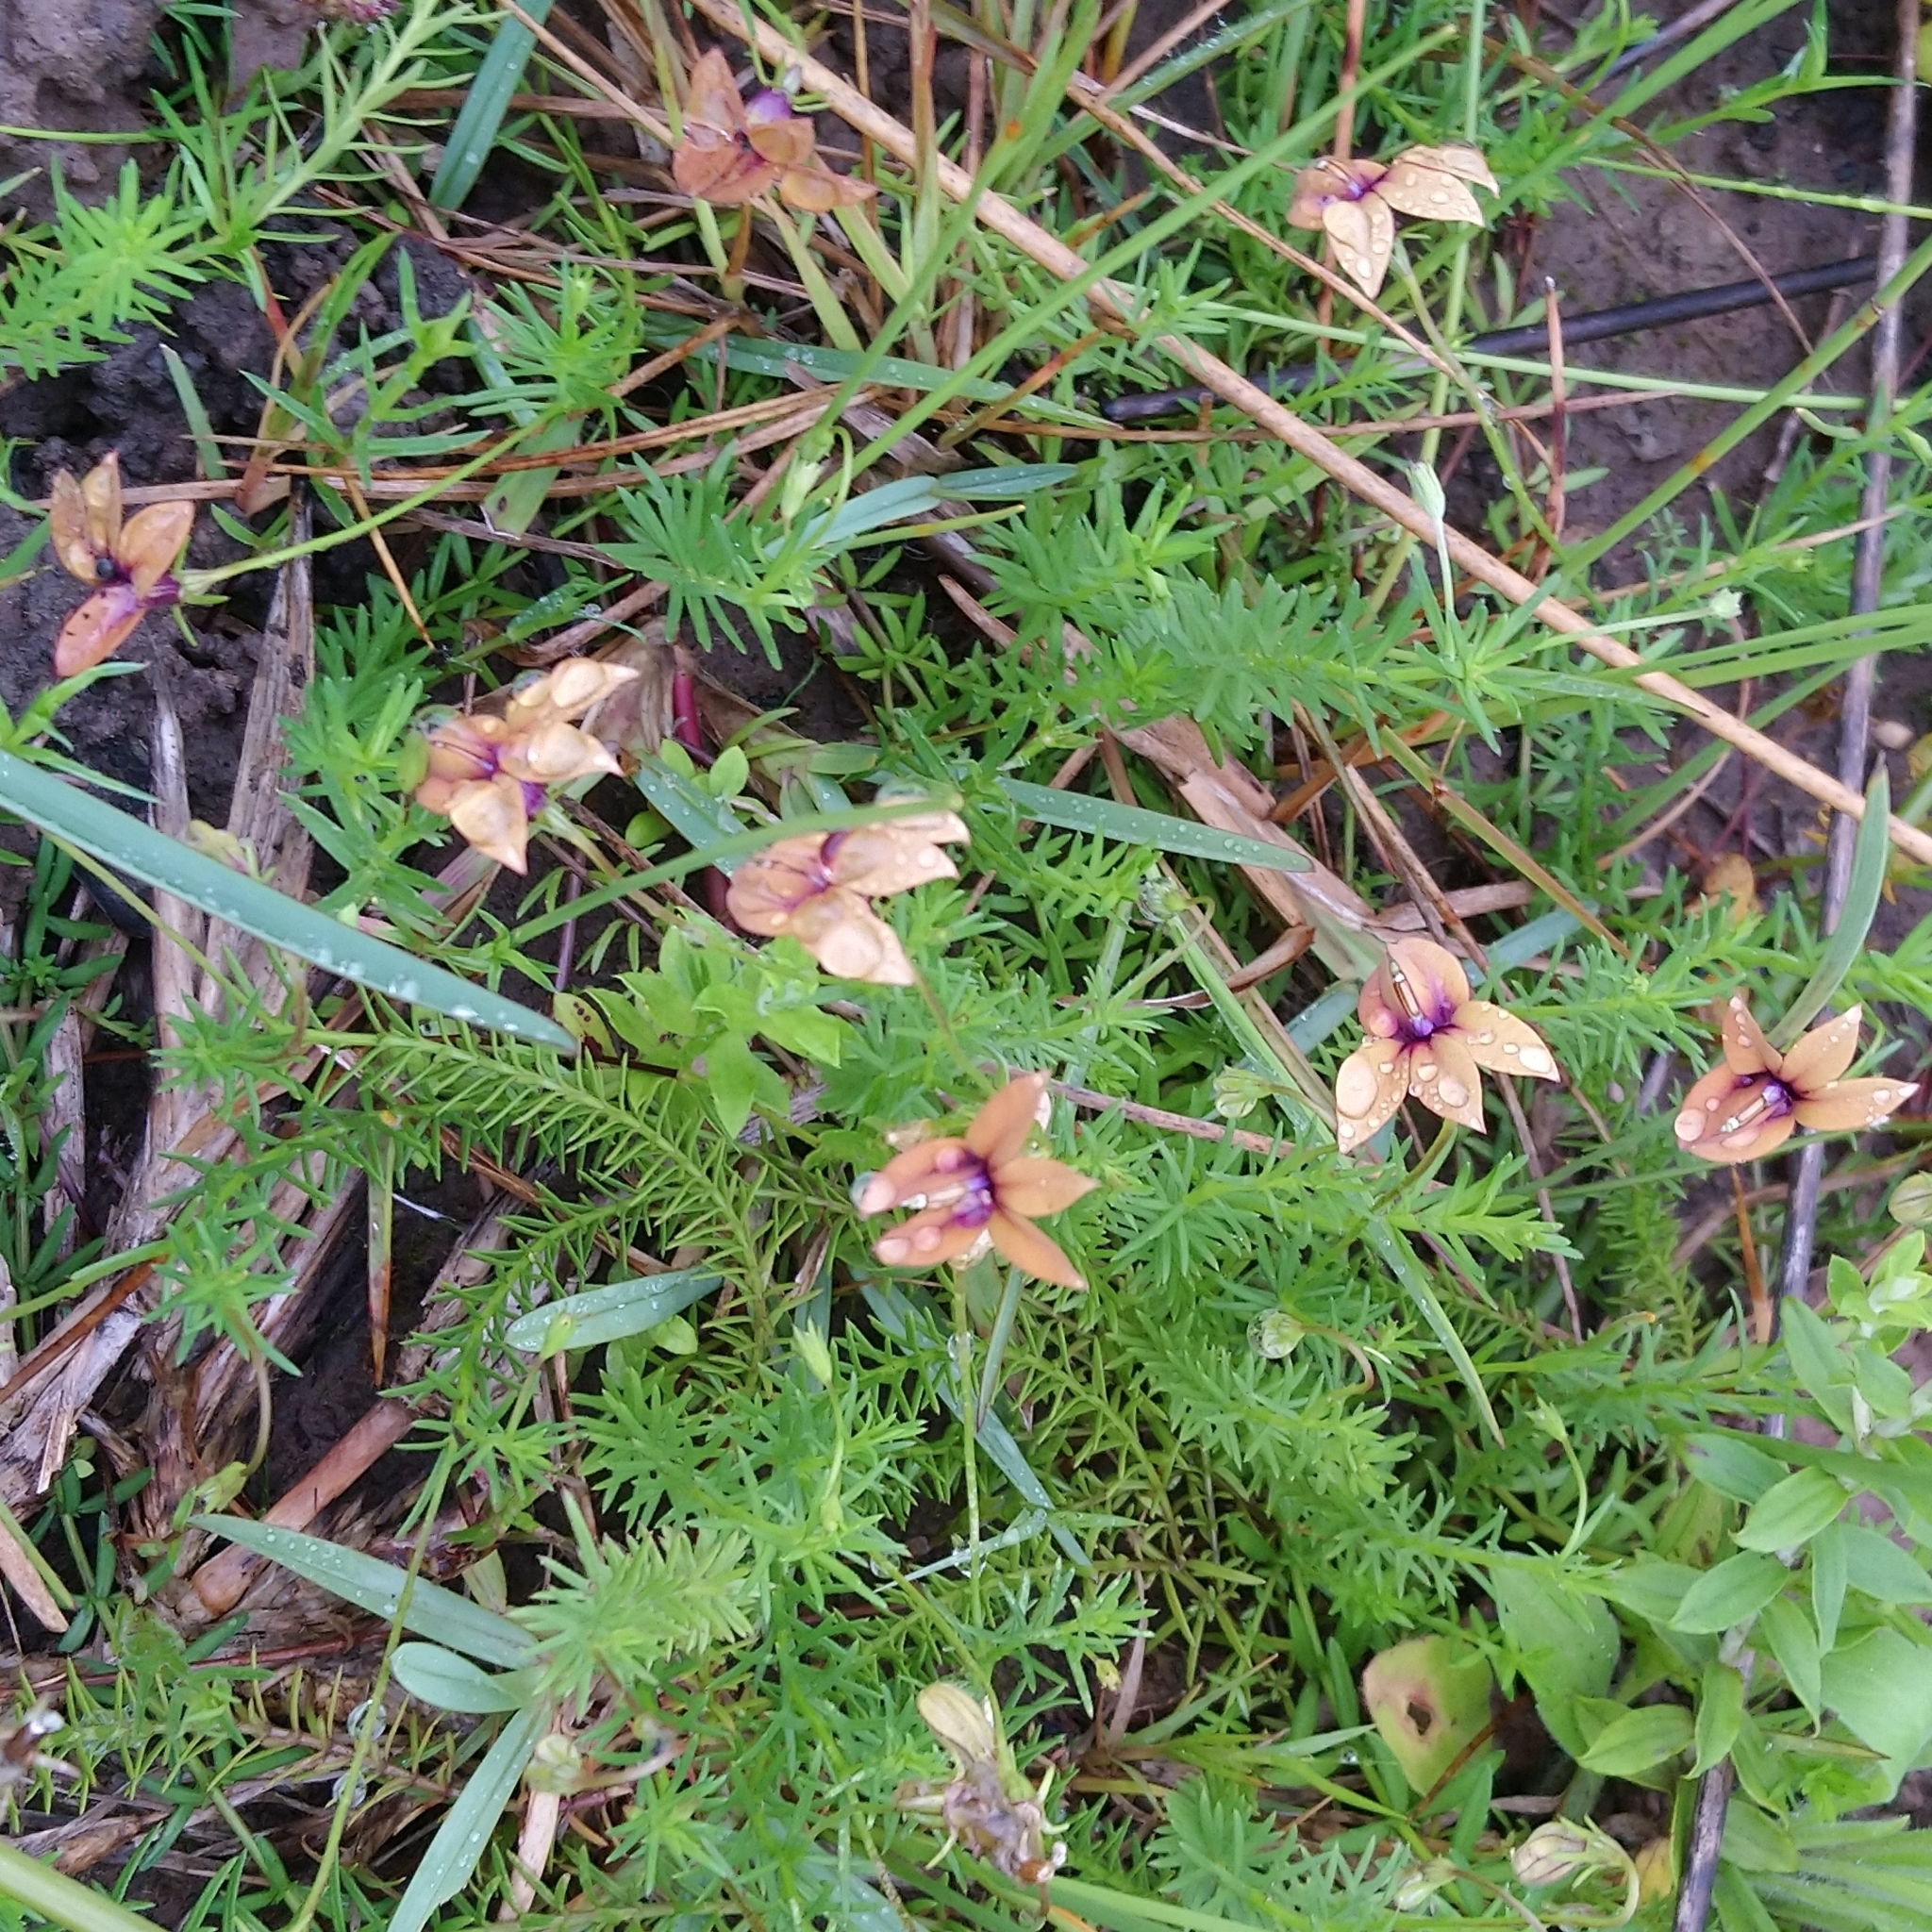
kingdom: Plantae
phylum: Tracheophyta
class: Magnoliopsida
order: Asterales
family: Campanulaceae
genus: Monopsis
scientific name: Monopsis unidentata
